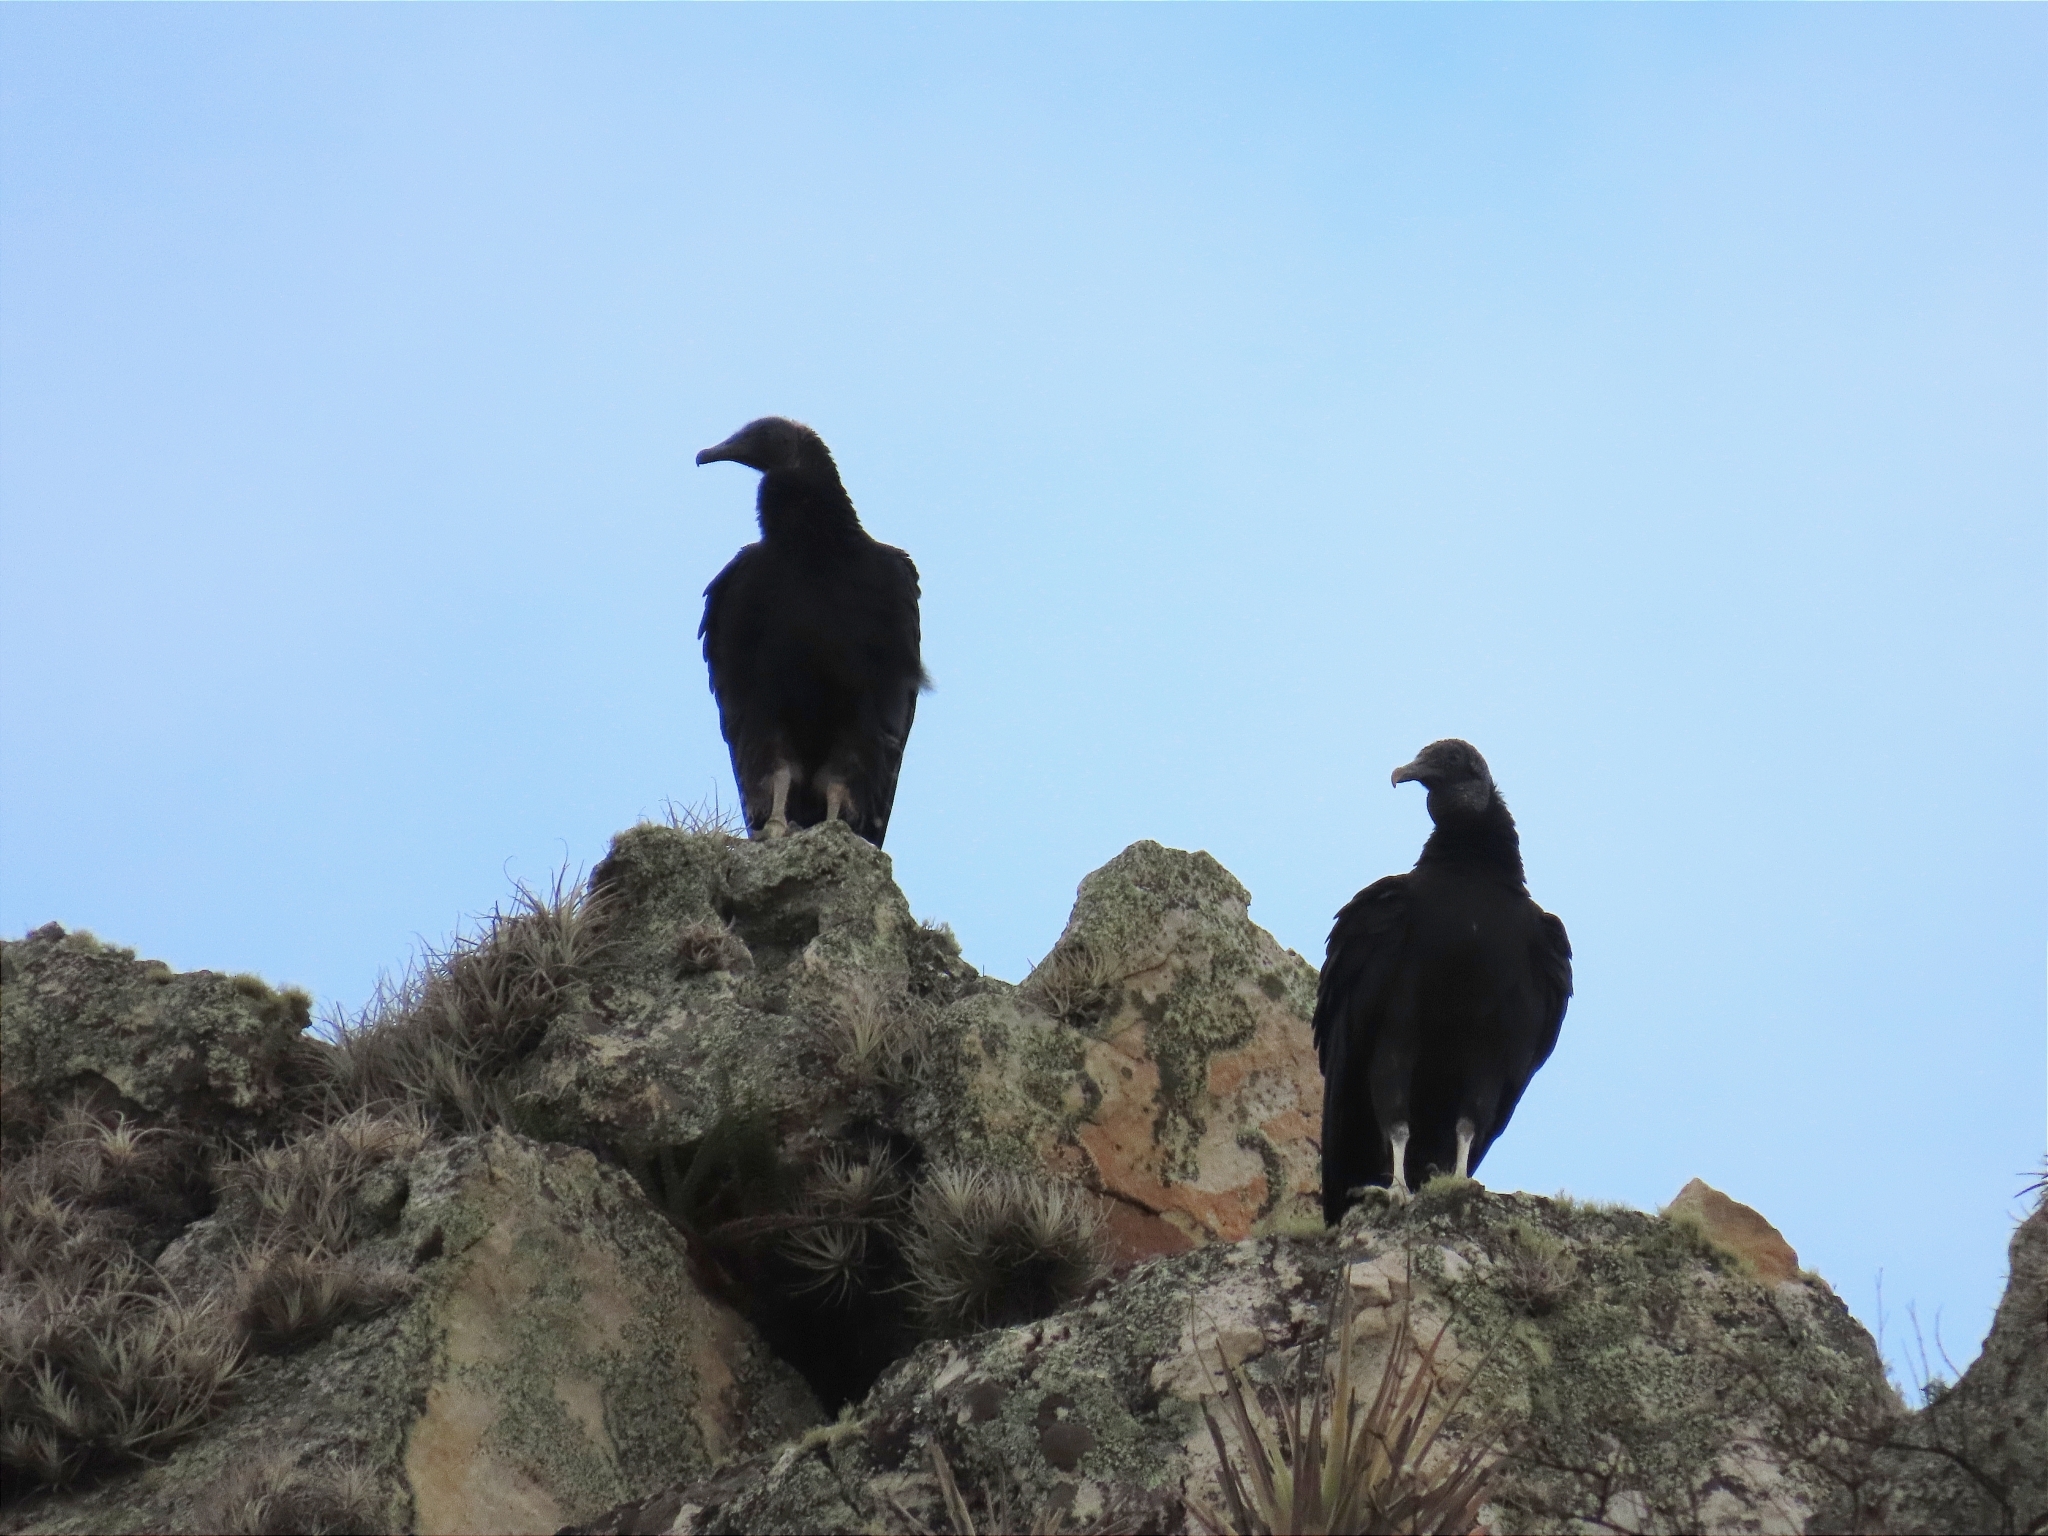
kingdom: Animalia
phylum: Chordata
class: Aves
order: Accipitriformes
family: Cathartidae
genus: Coragyps
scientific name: Coragyps atratus
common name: Black vulture
